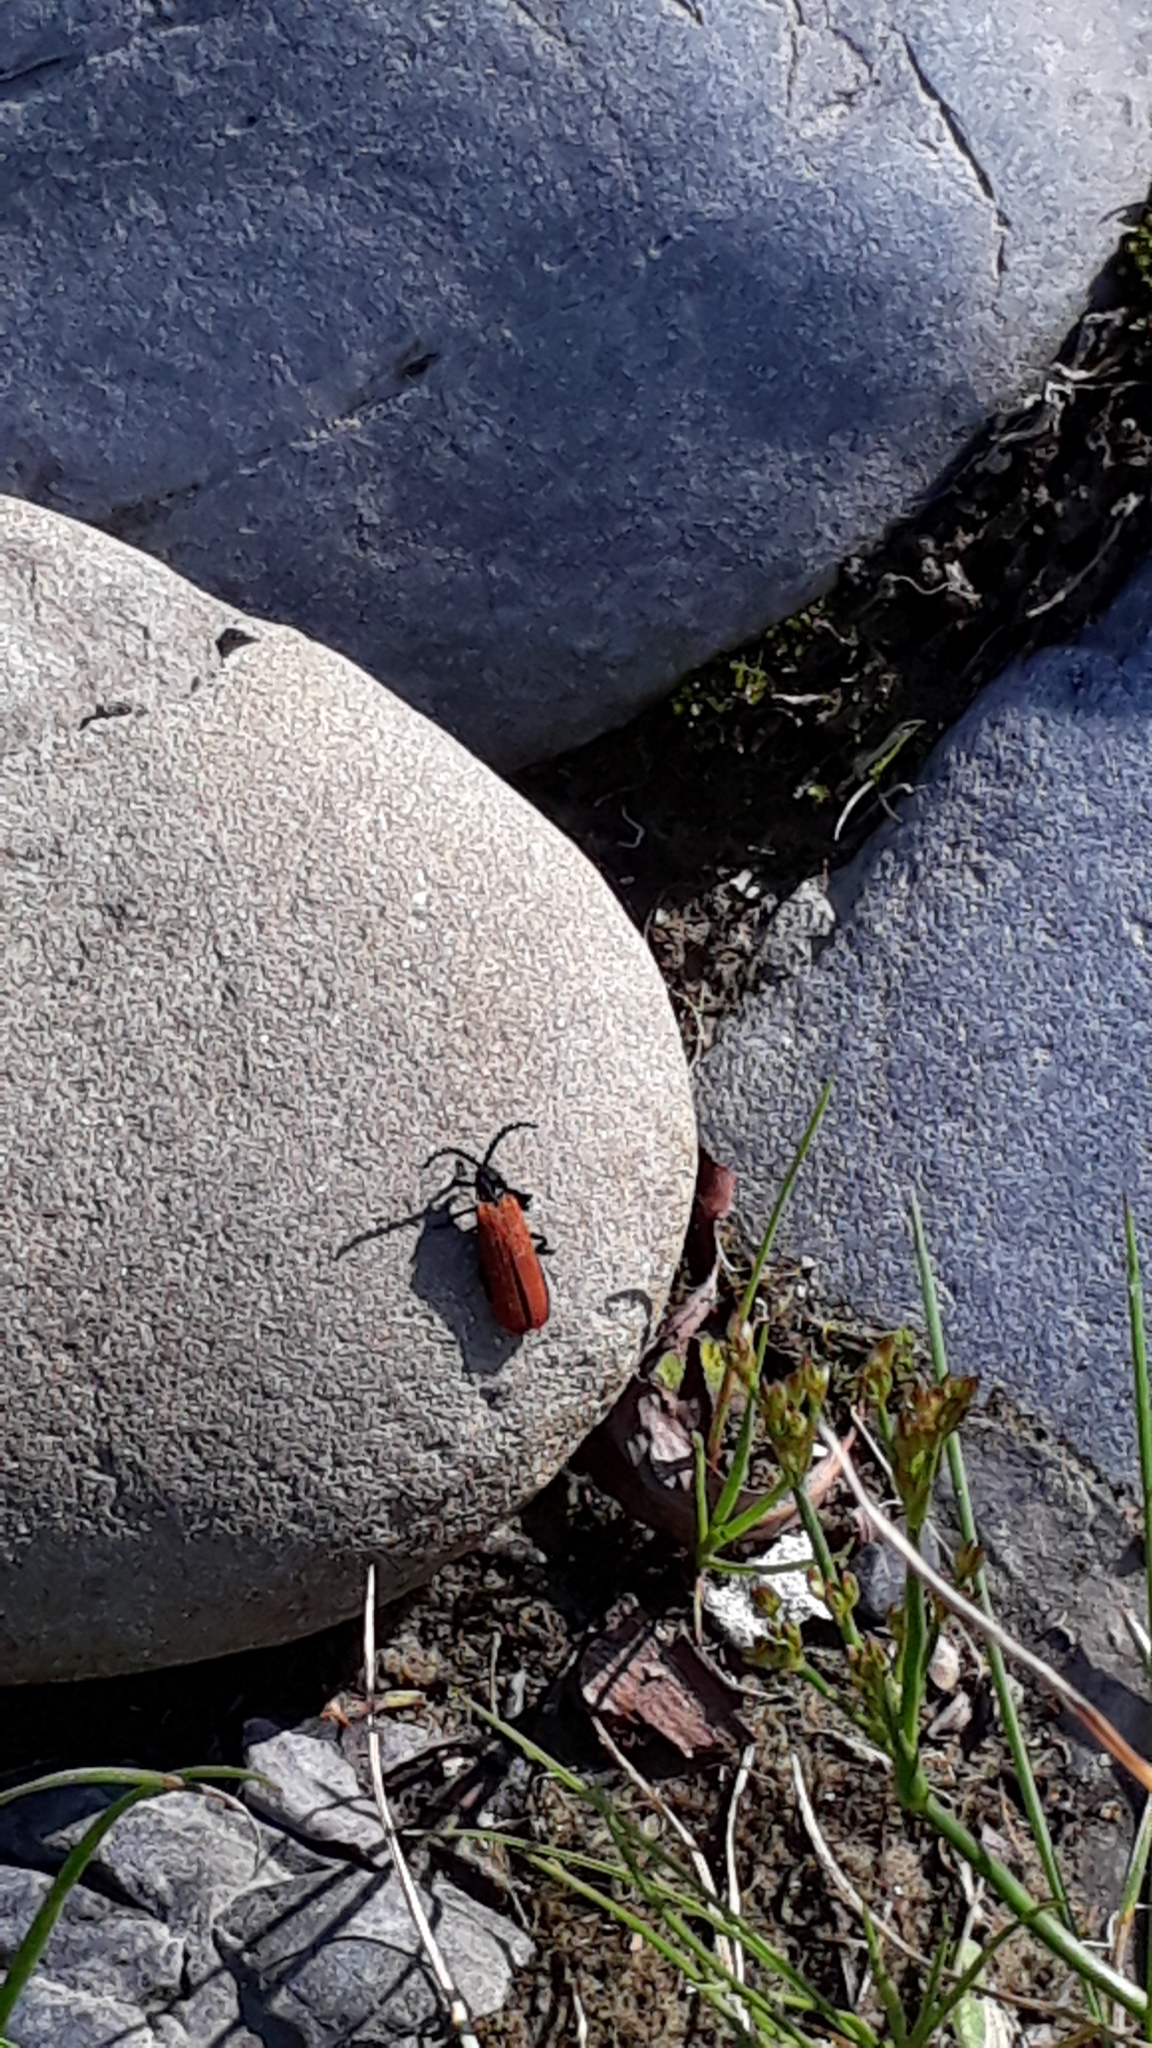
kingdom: Animalia
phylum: Arthropoda
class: Insecta
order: Coleoptera
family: Lycidae
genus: Porrostoma
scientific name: Porrostoma rufipenne
